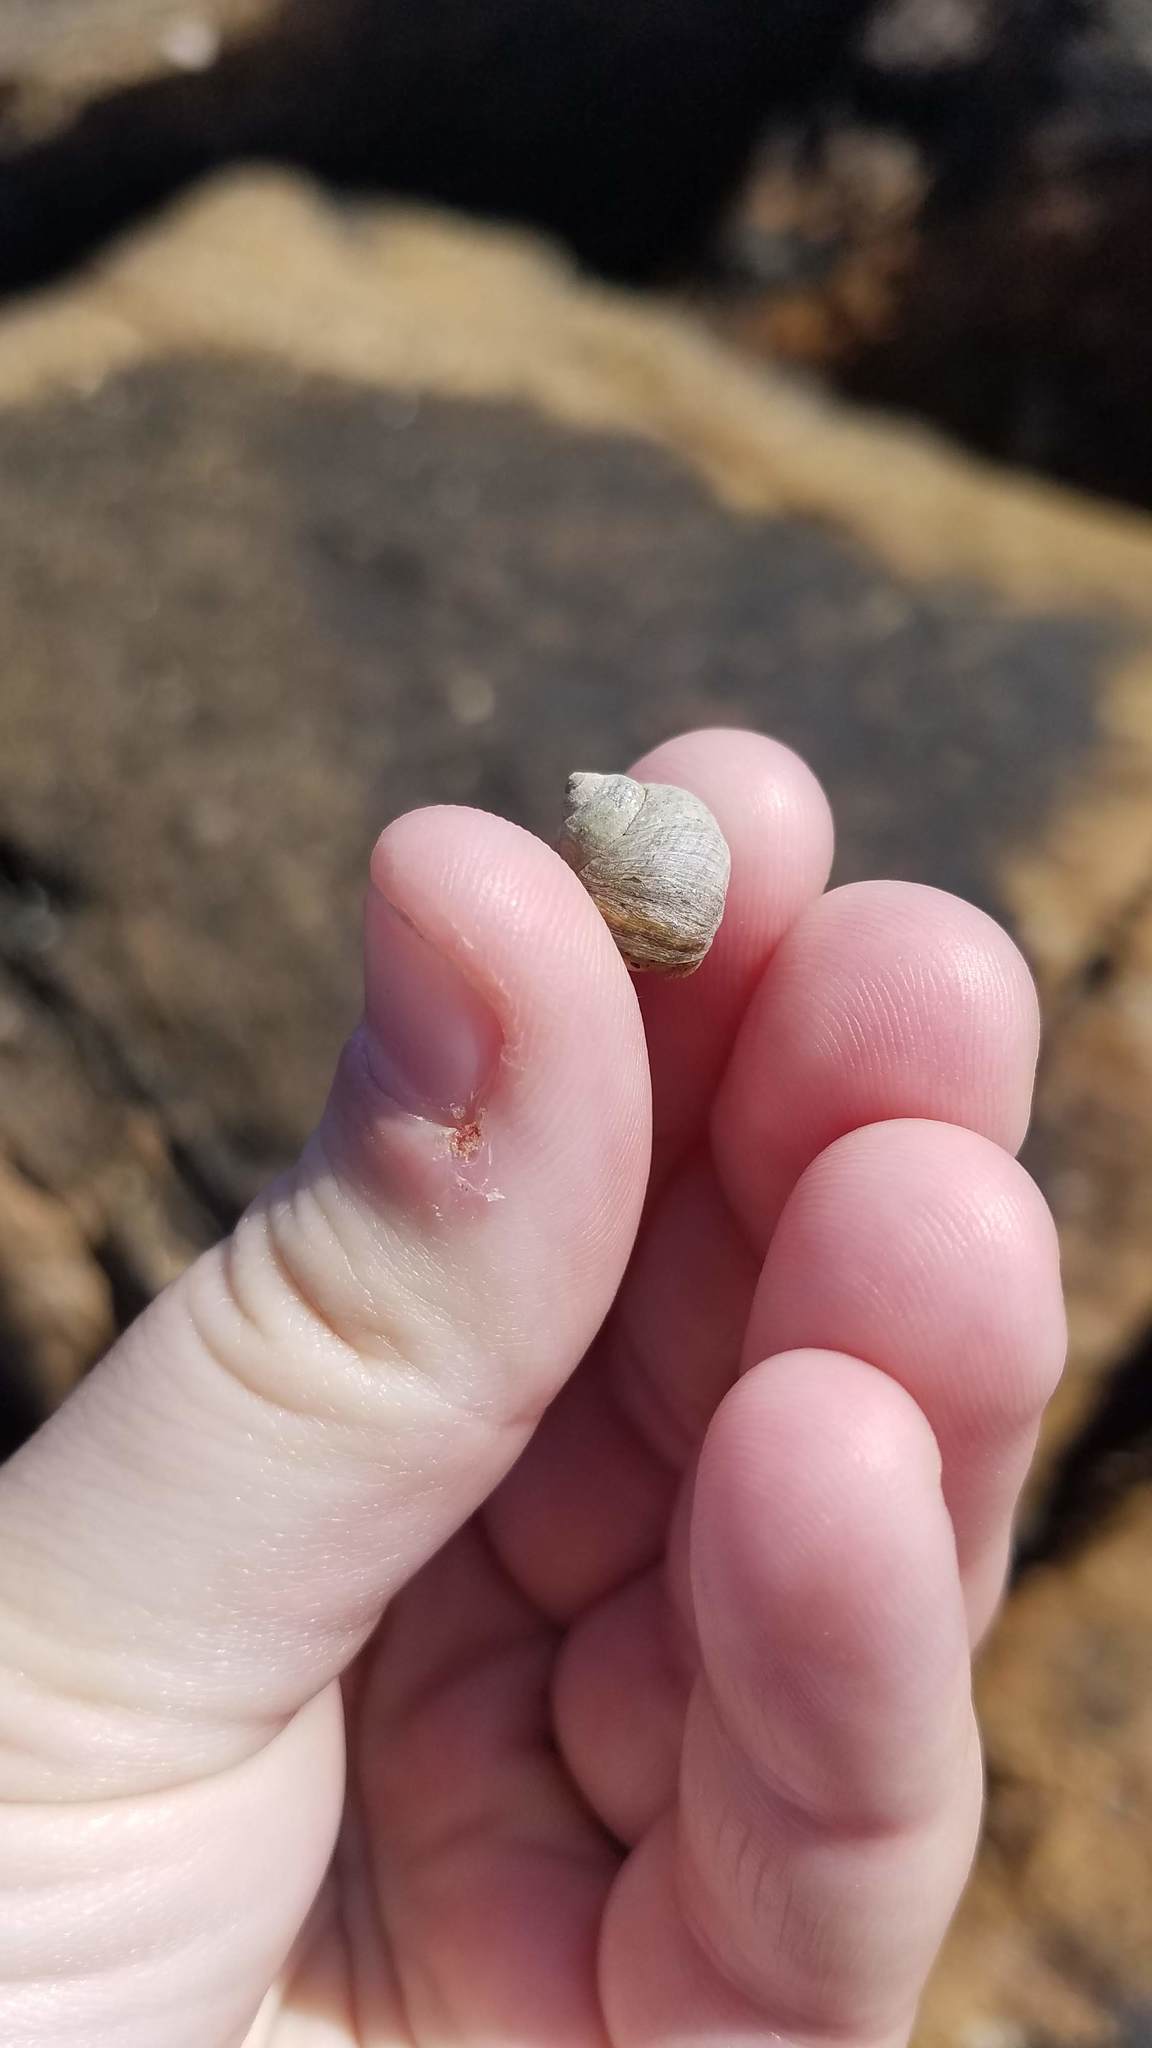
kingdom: Animalia
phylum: Mollusca
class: Gastropoda
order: Littorinimorpha
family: Littorinidae
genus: Littorina
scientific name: Littorina saxatilis
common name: Black-lined periwinkle
